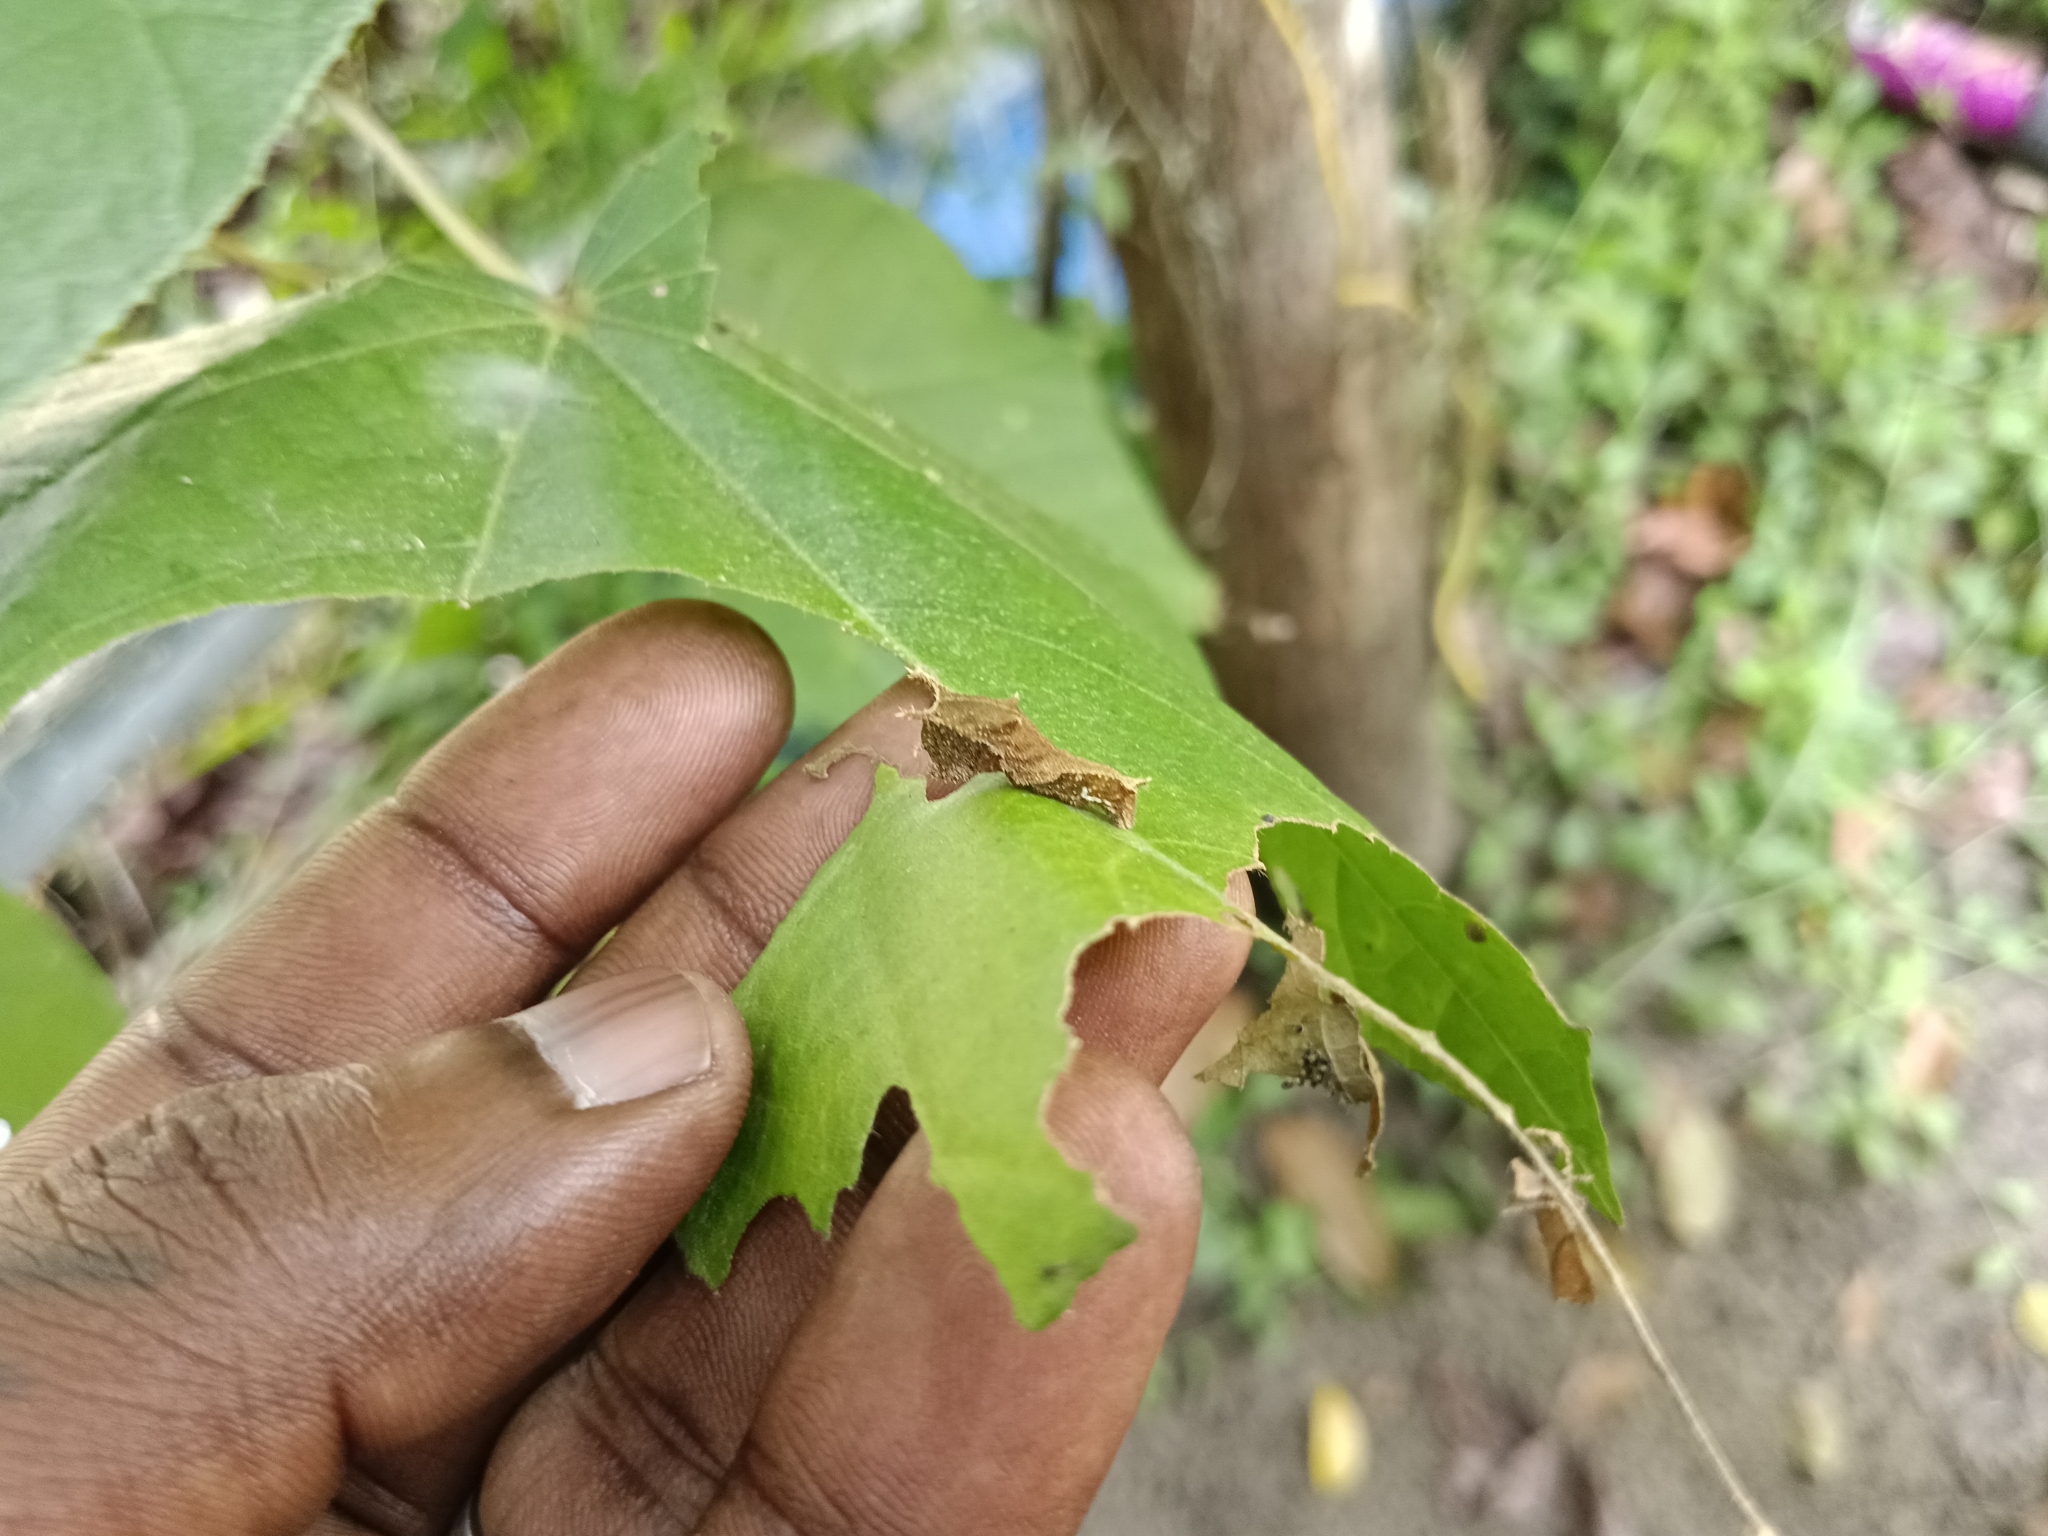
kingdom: Animalia
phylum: Arthropoda
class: Insecta
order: Lepidoptera
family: Nymphalidae
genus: Neptis
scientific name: Neptis jumbah
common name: Chestnut-streaked sailer
